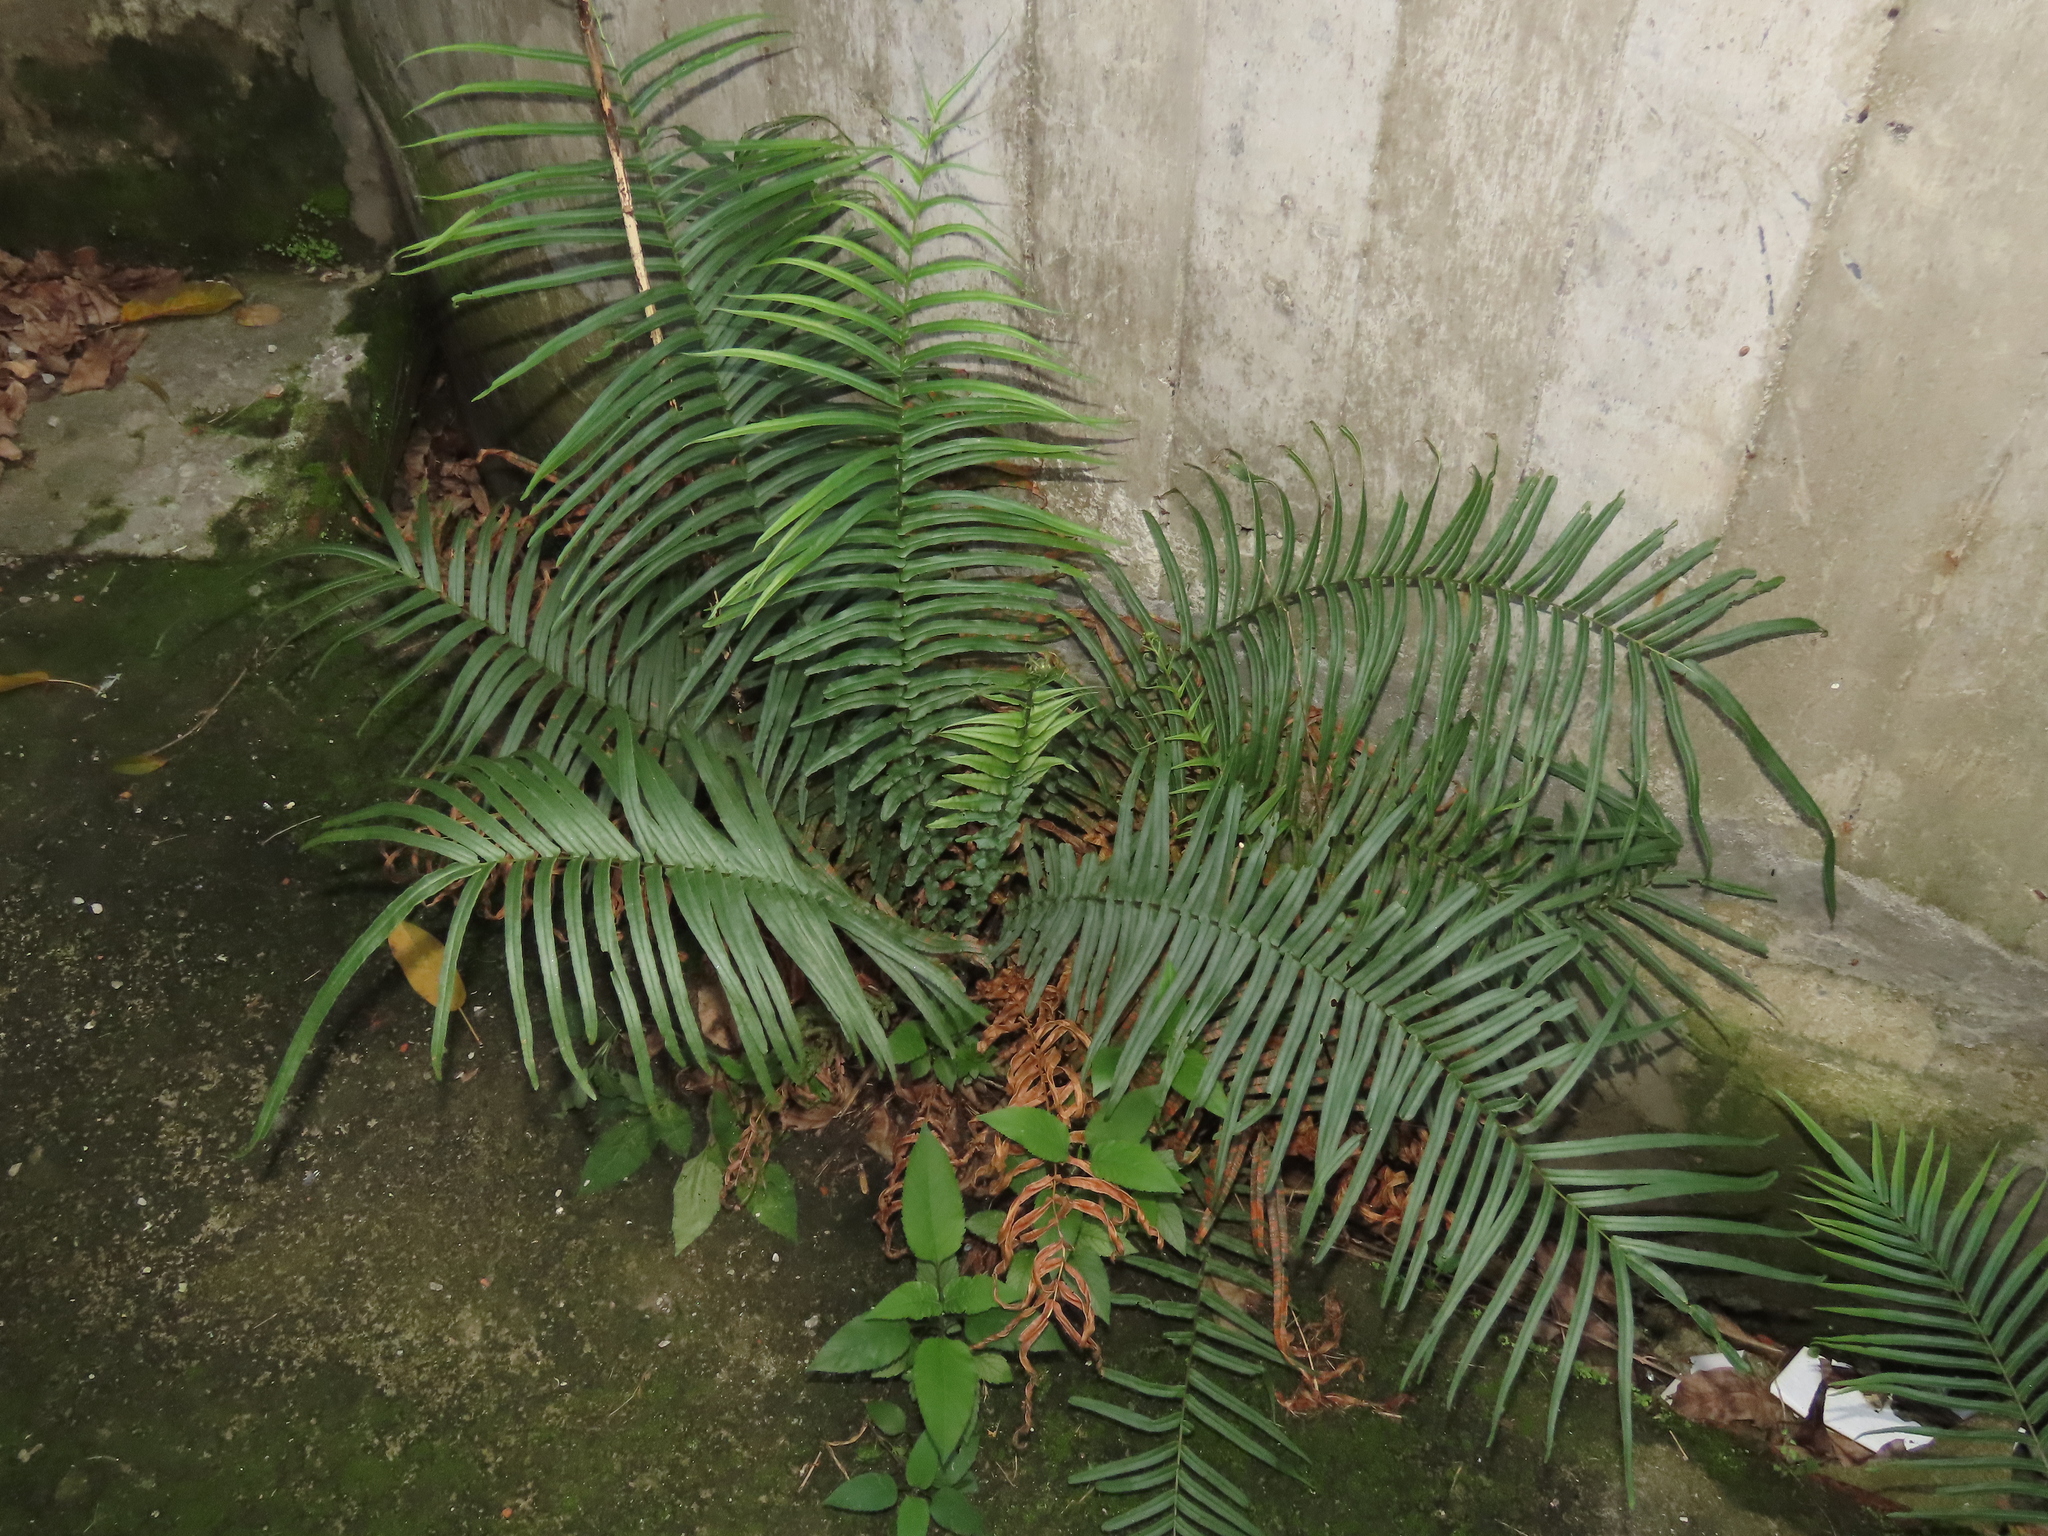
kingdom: Plantae
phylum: Tracheophyta
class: Polypodiopsida
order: Polypodiales
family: Pteridaceae
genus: Pteris
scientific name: Pteris vittata
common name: Ladder brake
